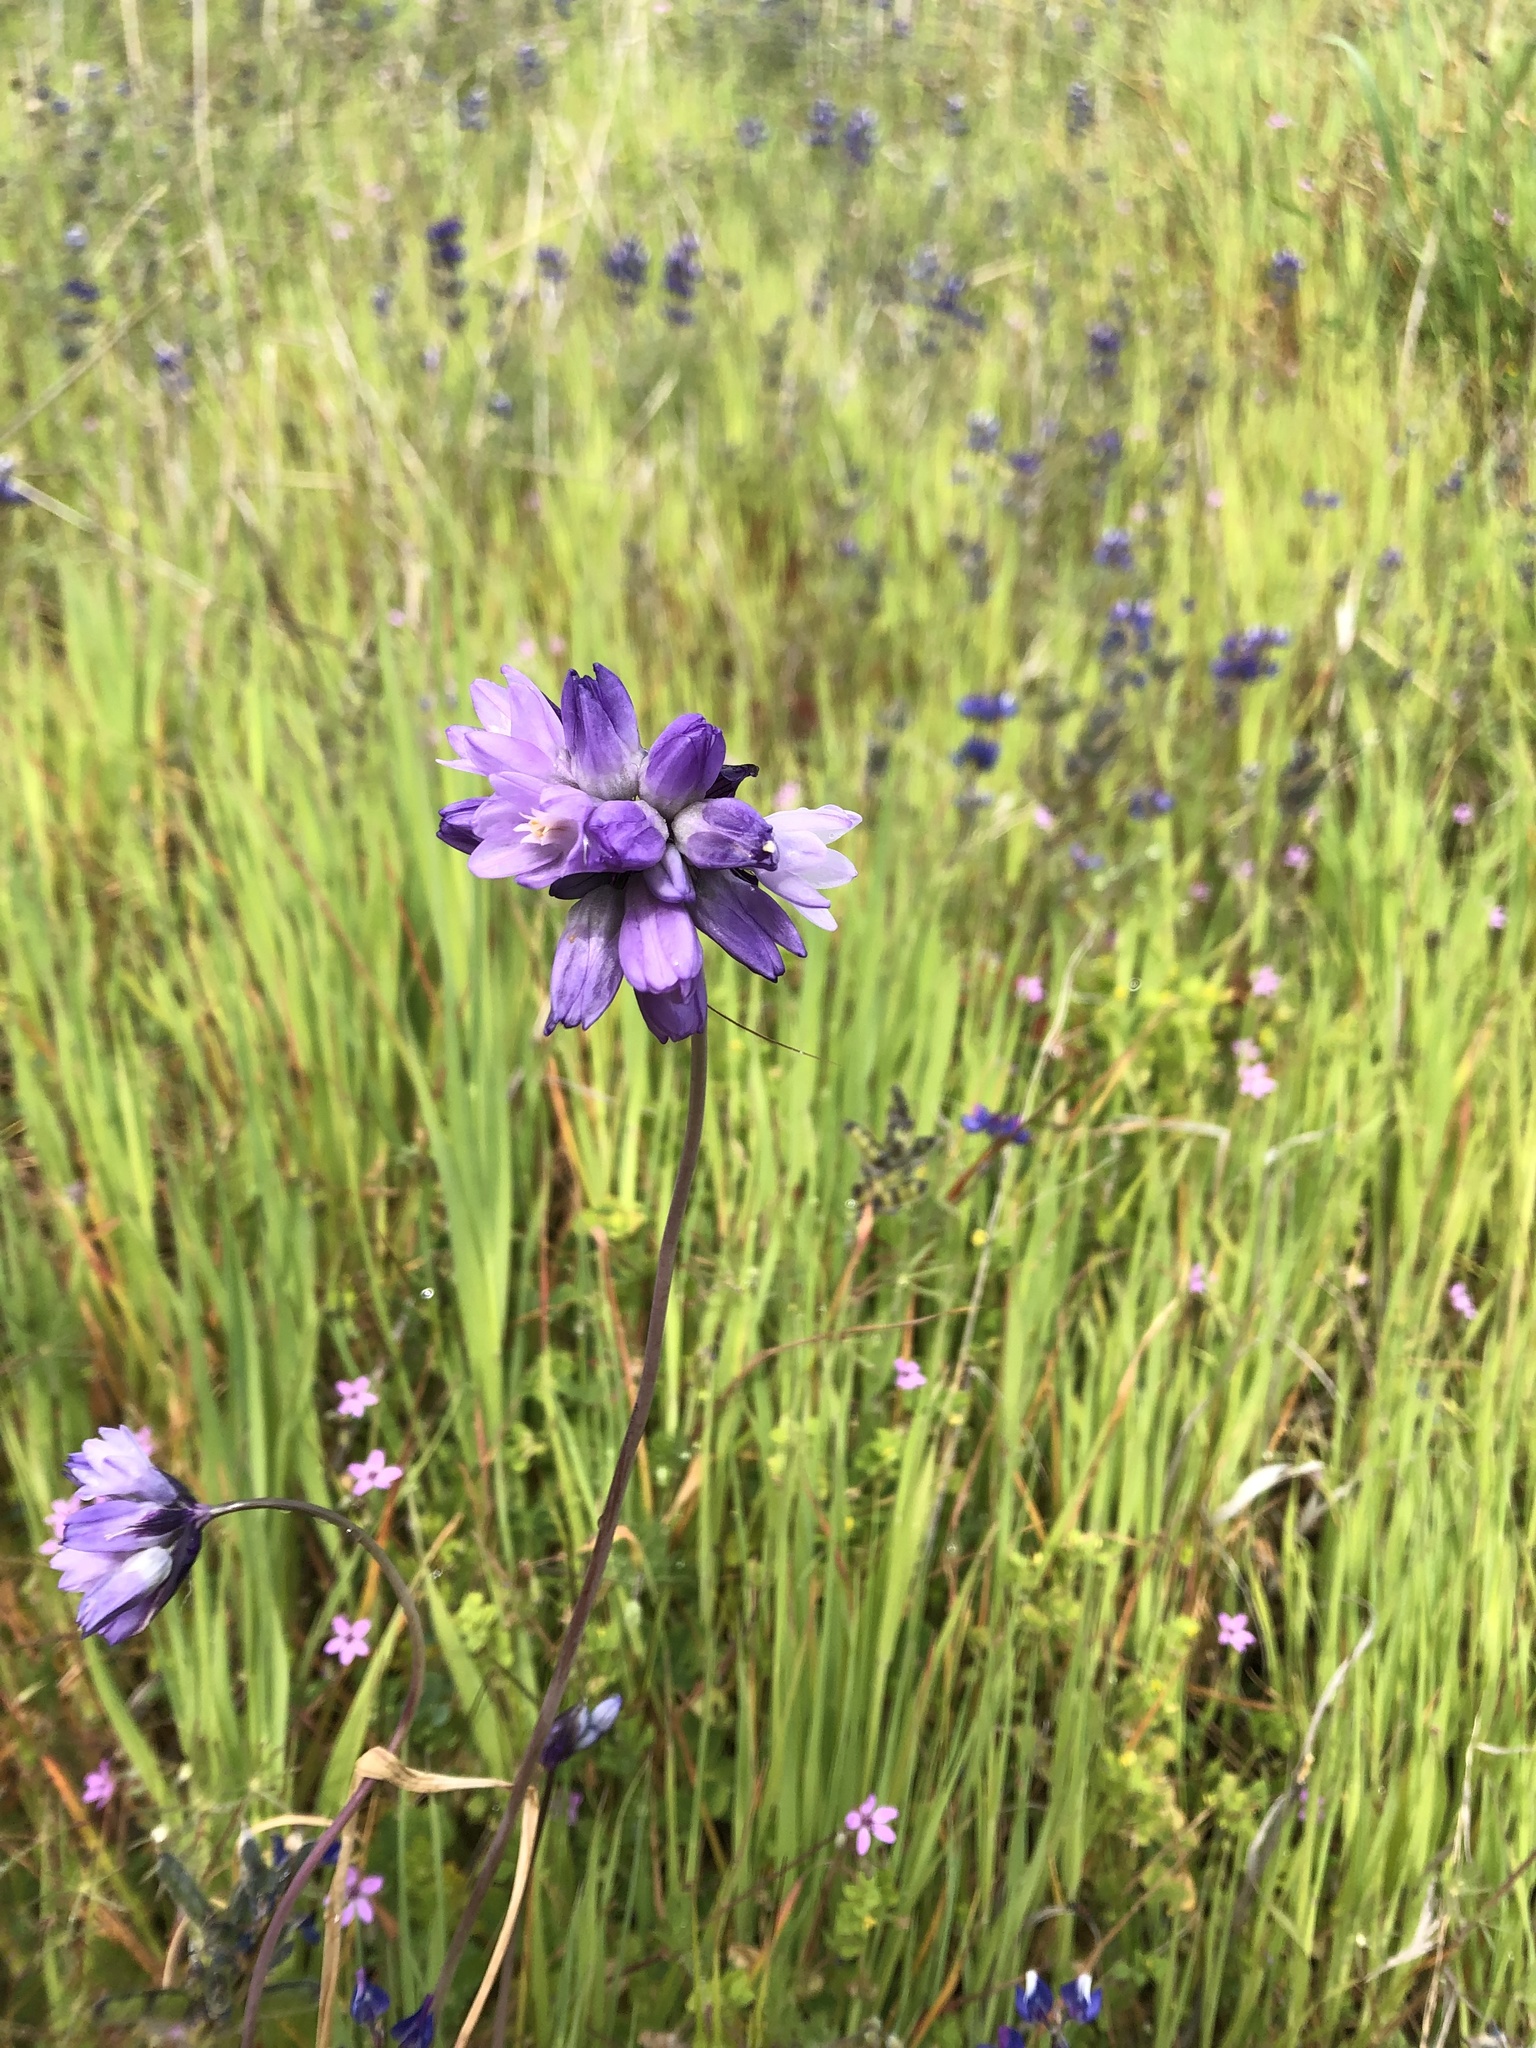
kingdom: Plantae
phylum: Tracheophyta
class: Liliopsida
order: Asparagales
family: Asparagaceae
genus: Dipterostemon
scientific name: Dipterostemon capitatus
